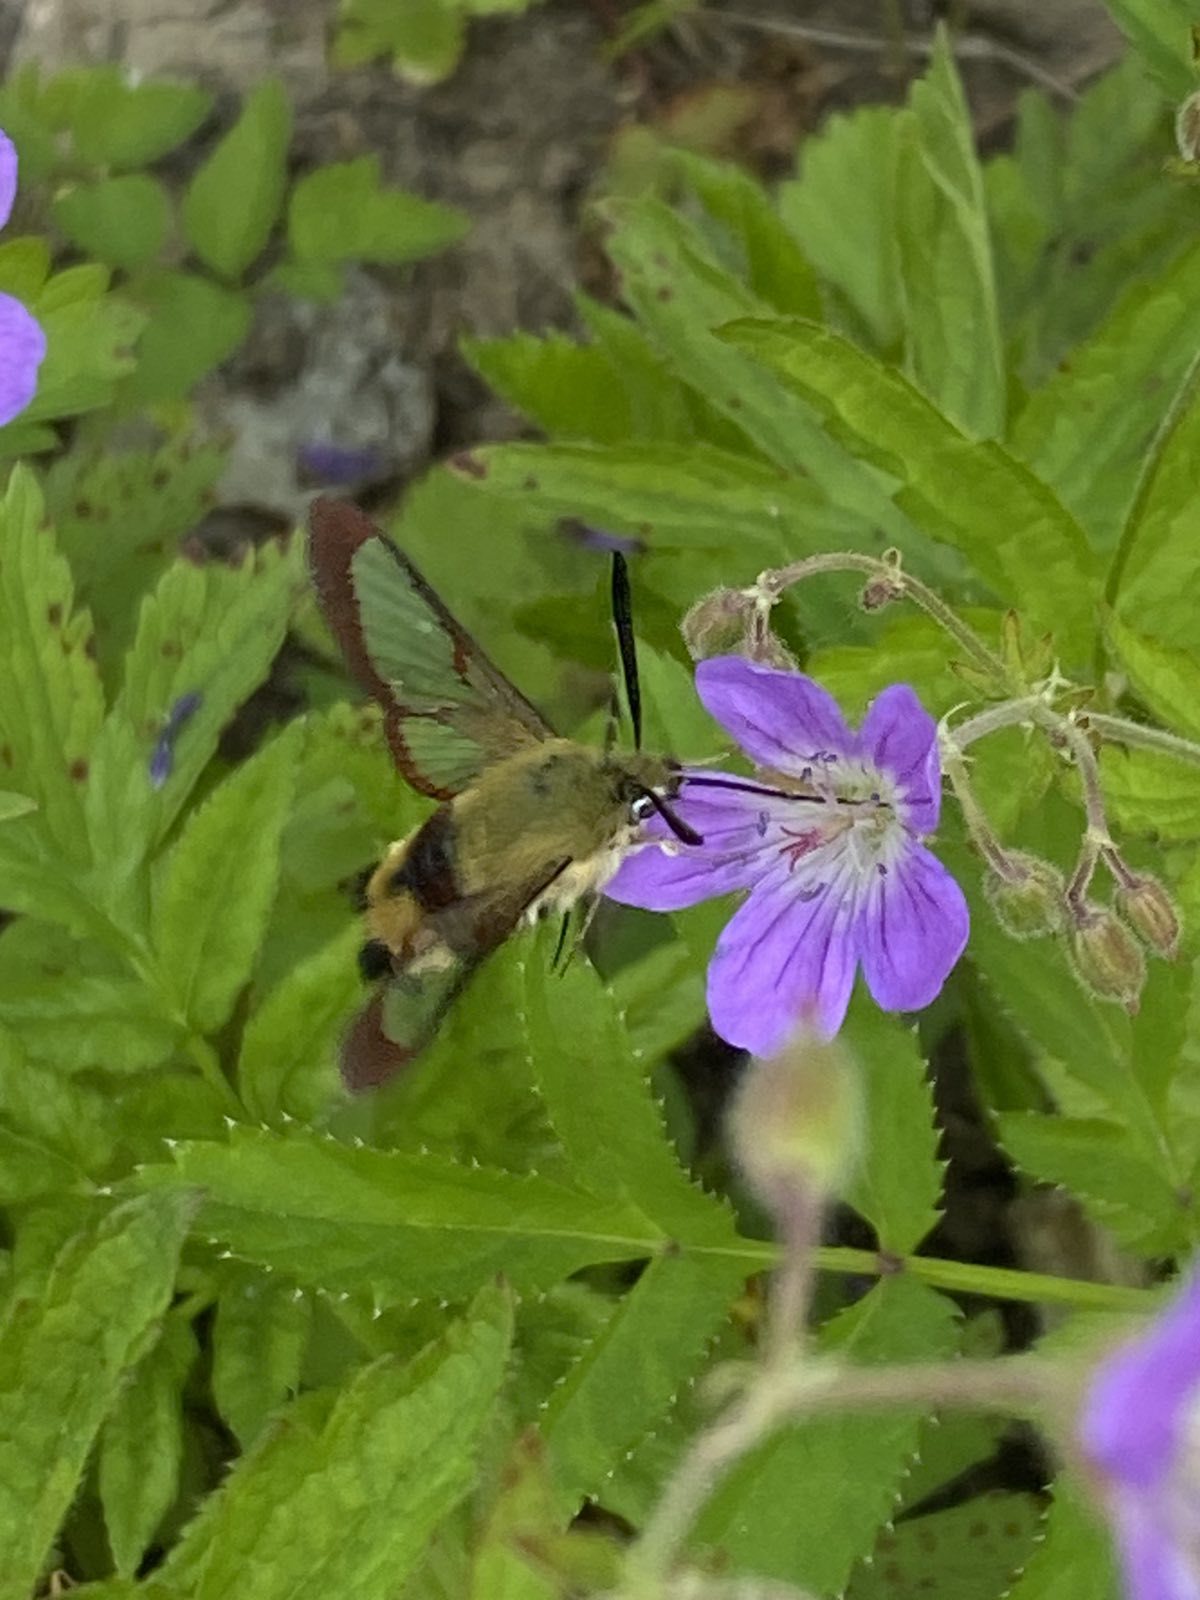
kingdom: Animalia
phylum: Arthropoda
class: Insecta
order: Lepidoptera
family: Sphingidae
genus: Hemaris
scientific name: Hemaris fuciformis
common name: Broad-bordered bee hawk-moth
